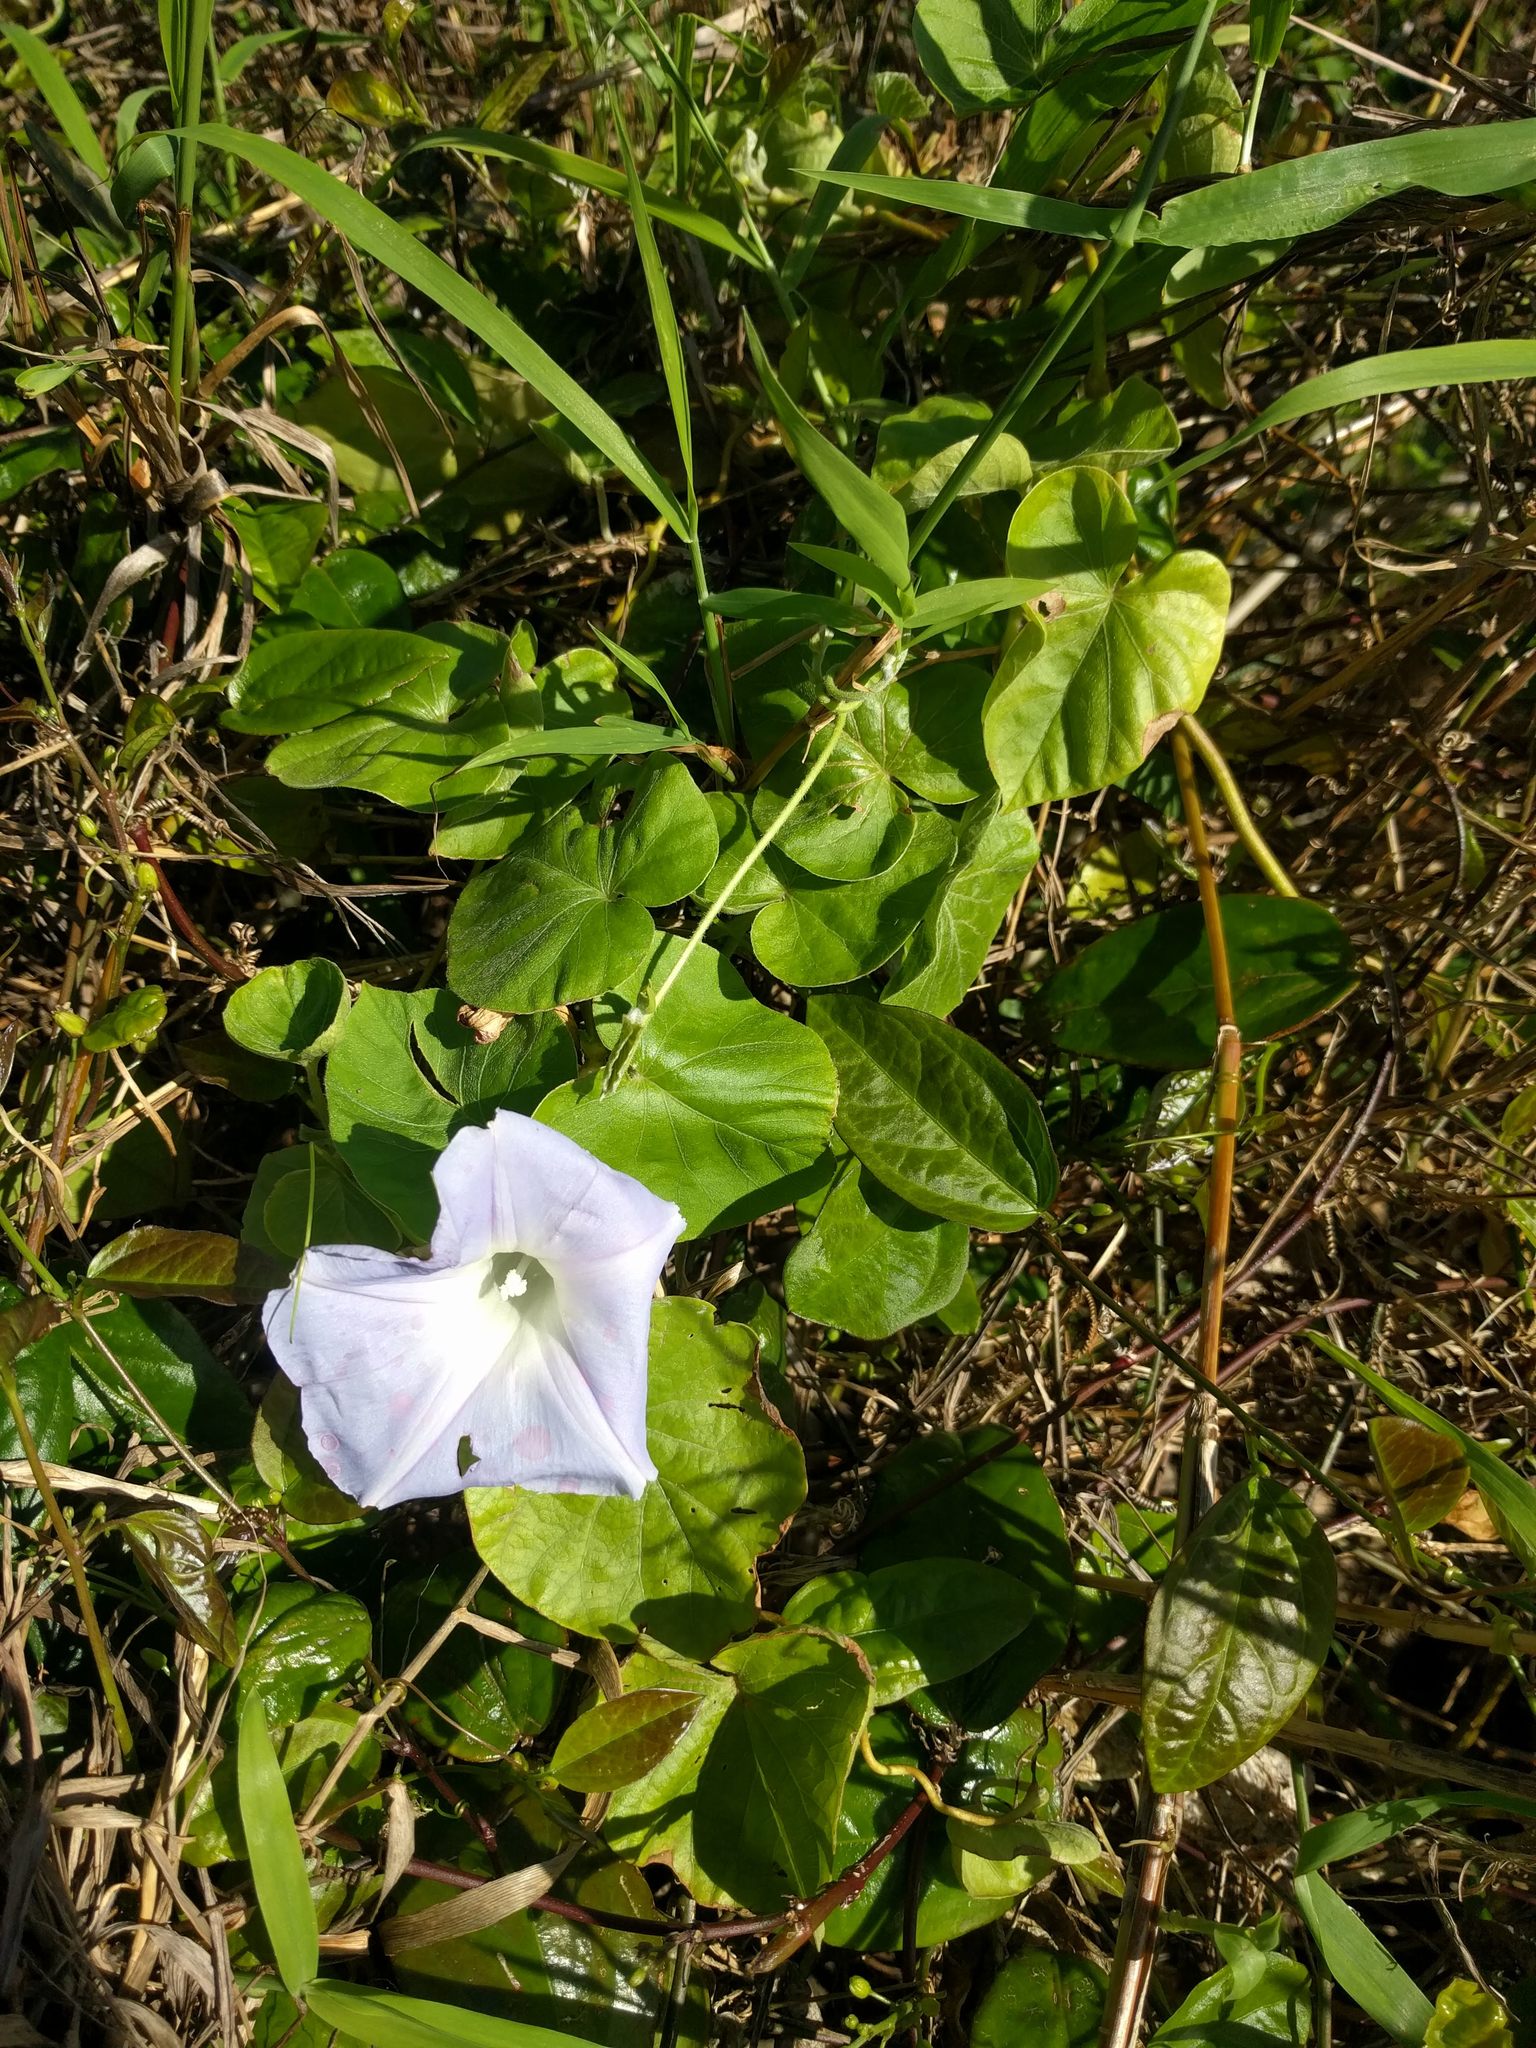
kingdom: Plantae
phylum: Tracheophyta
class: Magnoliopsida
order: Solanales
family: Convolvulaceae
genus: Ipomoea
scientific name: Ipomoea indica
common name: Blue dawnflower
